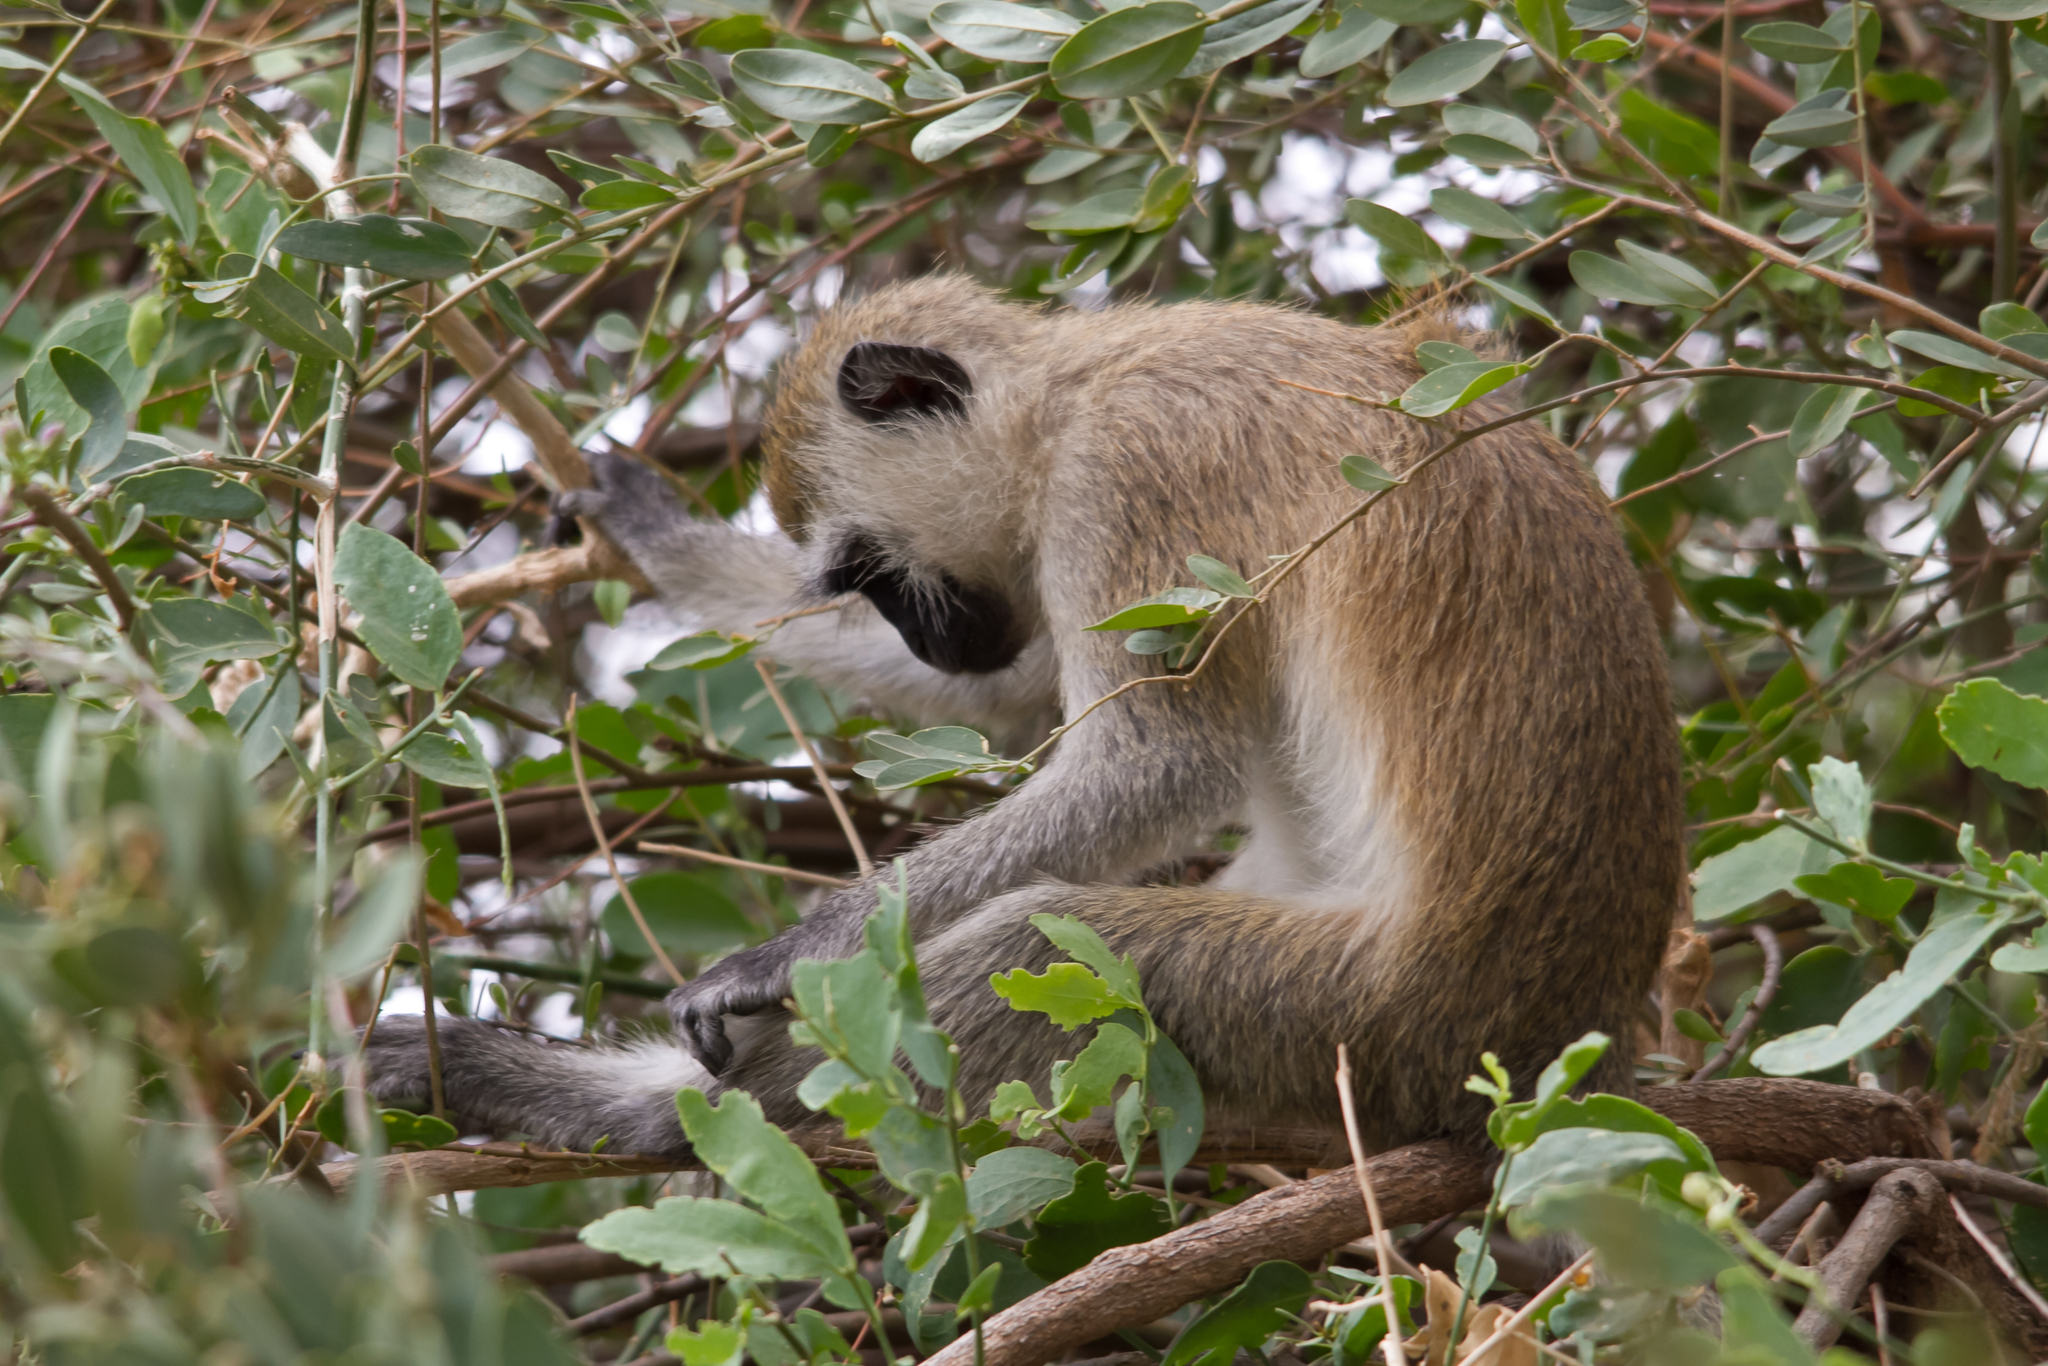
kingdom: Animalia
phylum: Chordata
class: Mammalia
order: Primates
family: Cercopithecidae
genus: Chlorocebus
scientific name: Chlorocebus pygerythrus
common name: Vervet monkey
